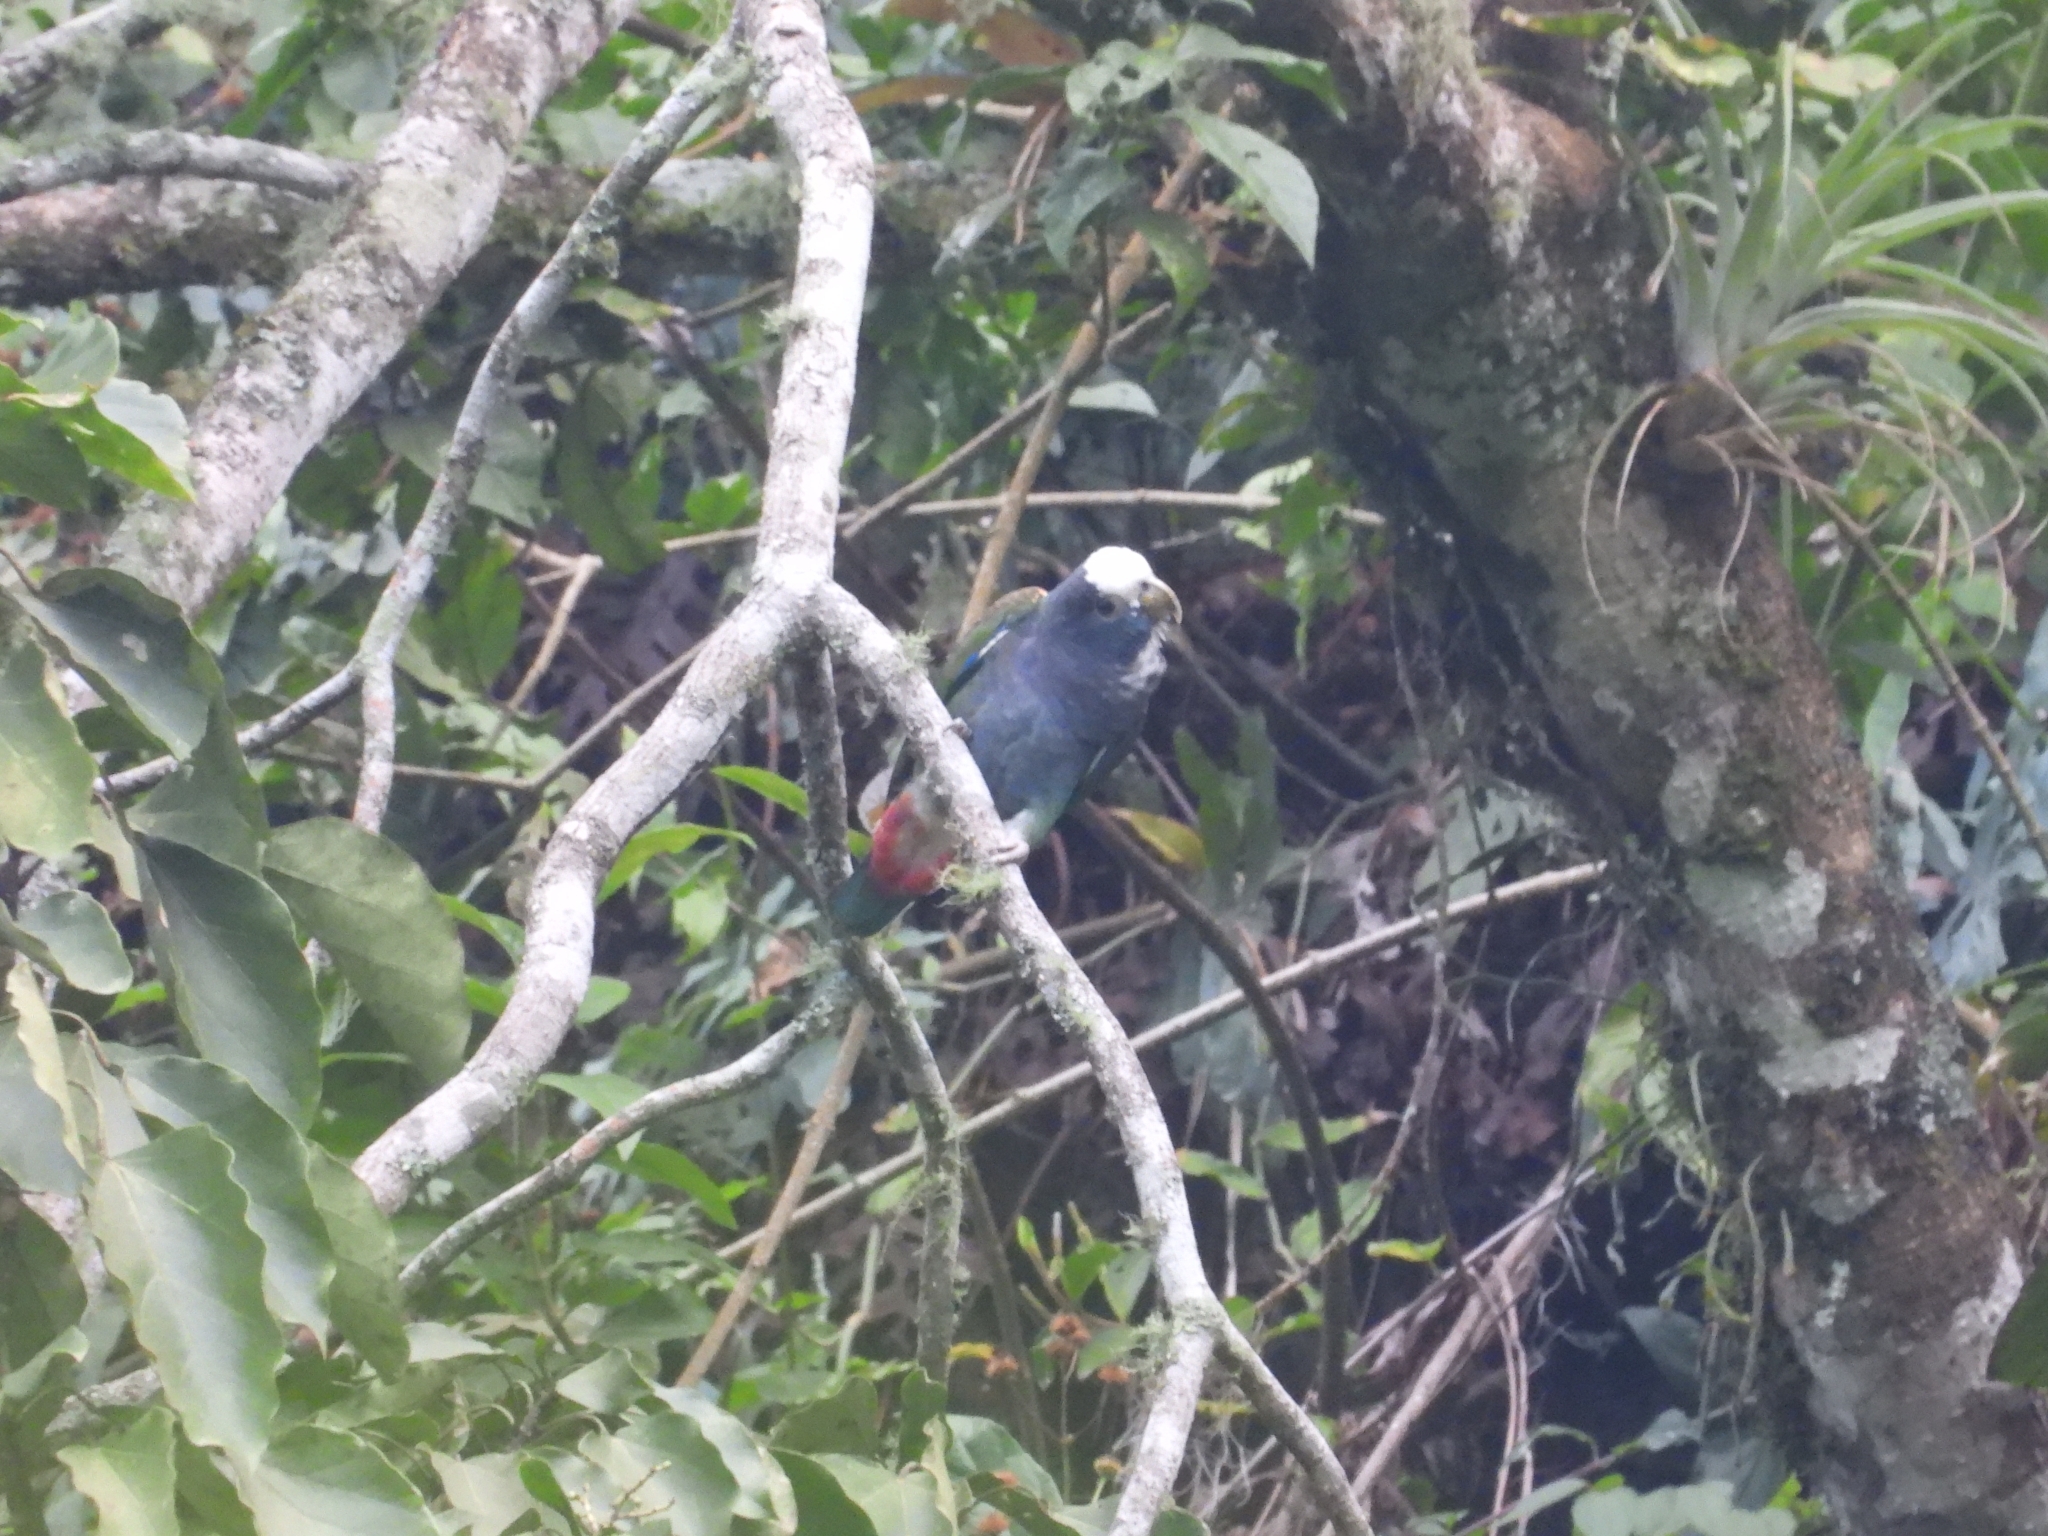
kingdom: Animalia
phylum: Chordata
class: Aves
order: Psittaciformes
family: Psittacidae
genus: Pionus
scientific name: Pionus senilis
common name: White-crowned parrot
